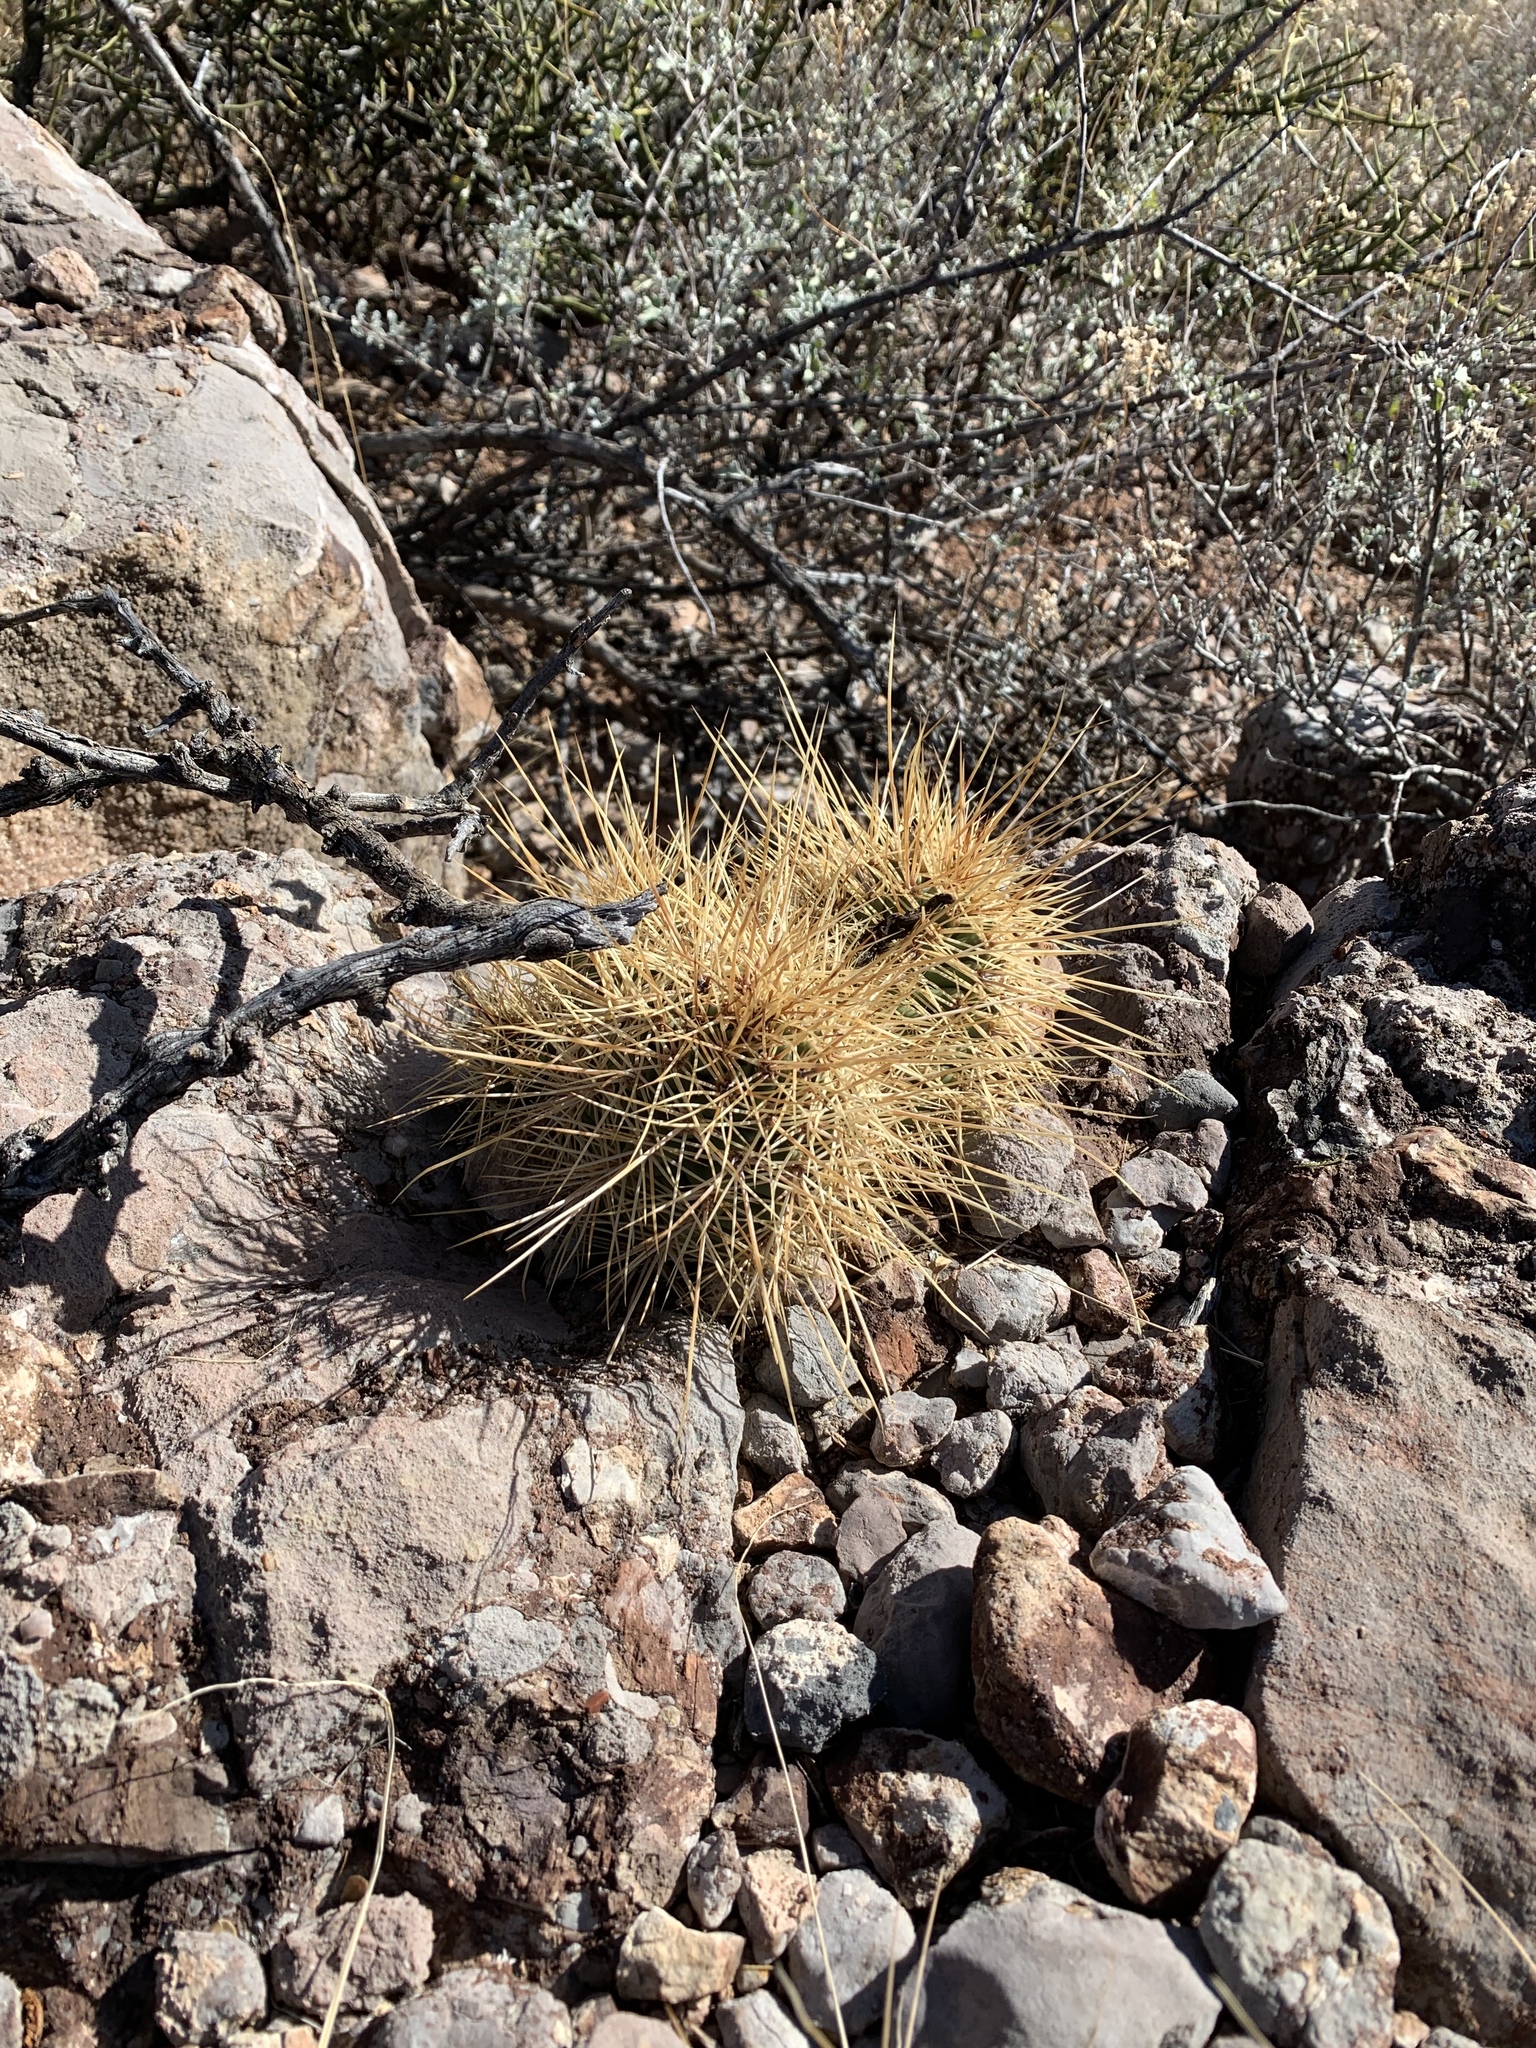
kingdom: Plantae
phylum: Tracheophyta
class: Magnoliopsida
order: Caryophyllales
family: Cactaceae
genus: Echinocereus
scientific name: Echinocereus stramineus
